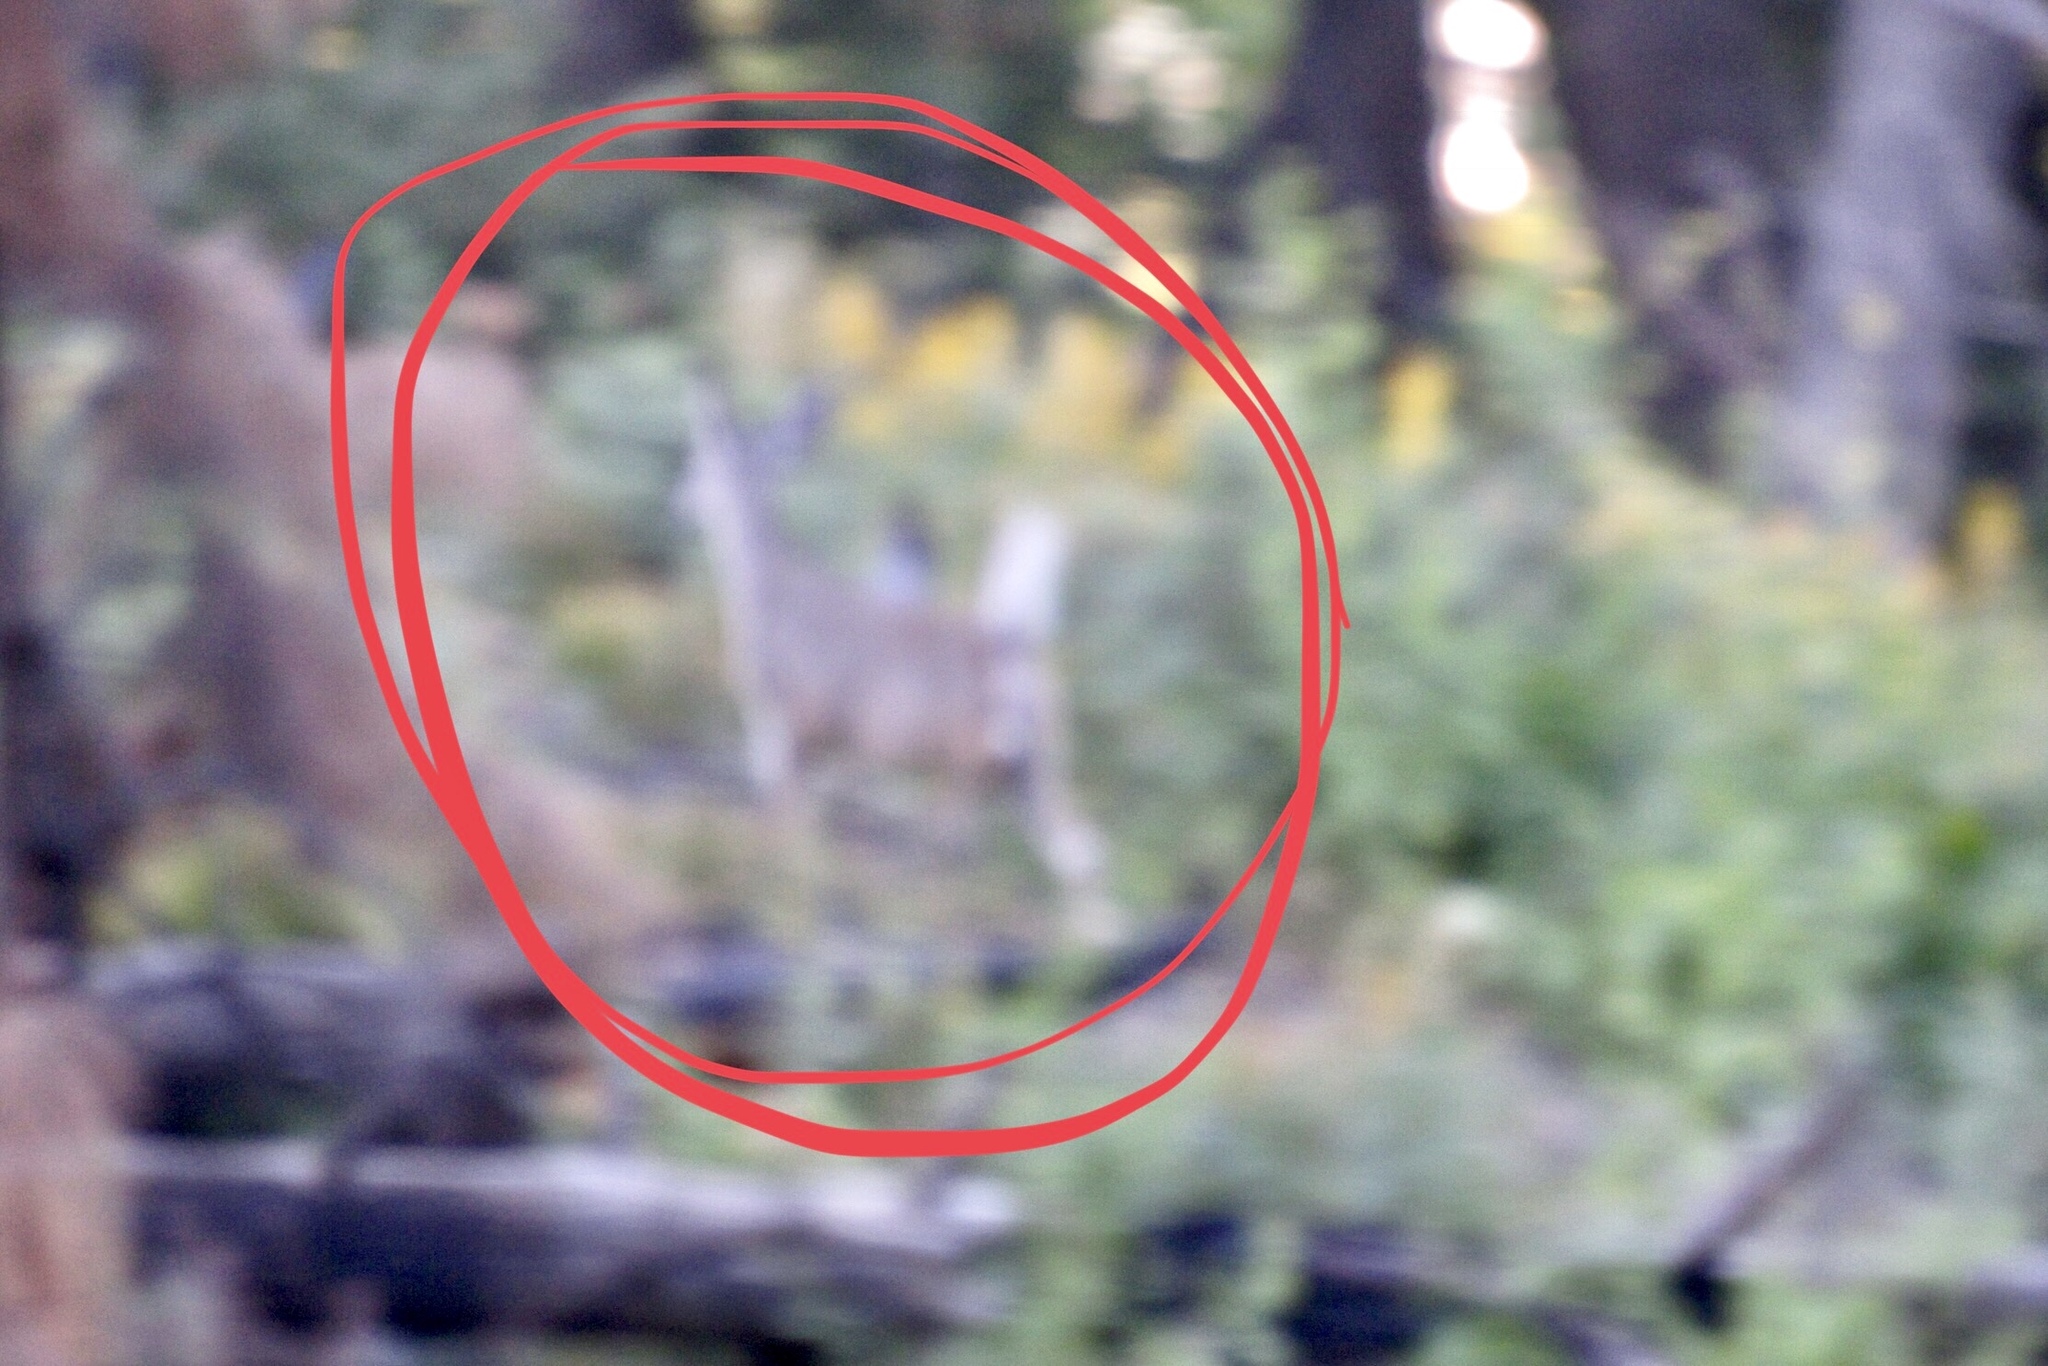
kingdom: Animalia
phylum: Chordata
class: Mammalia
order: Artiodactyla
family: Cervidae
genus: Odocoileus
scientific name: Odocoileus virginianus
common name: White-tailed deer
